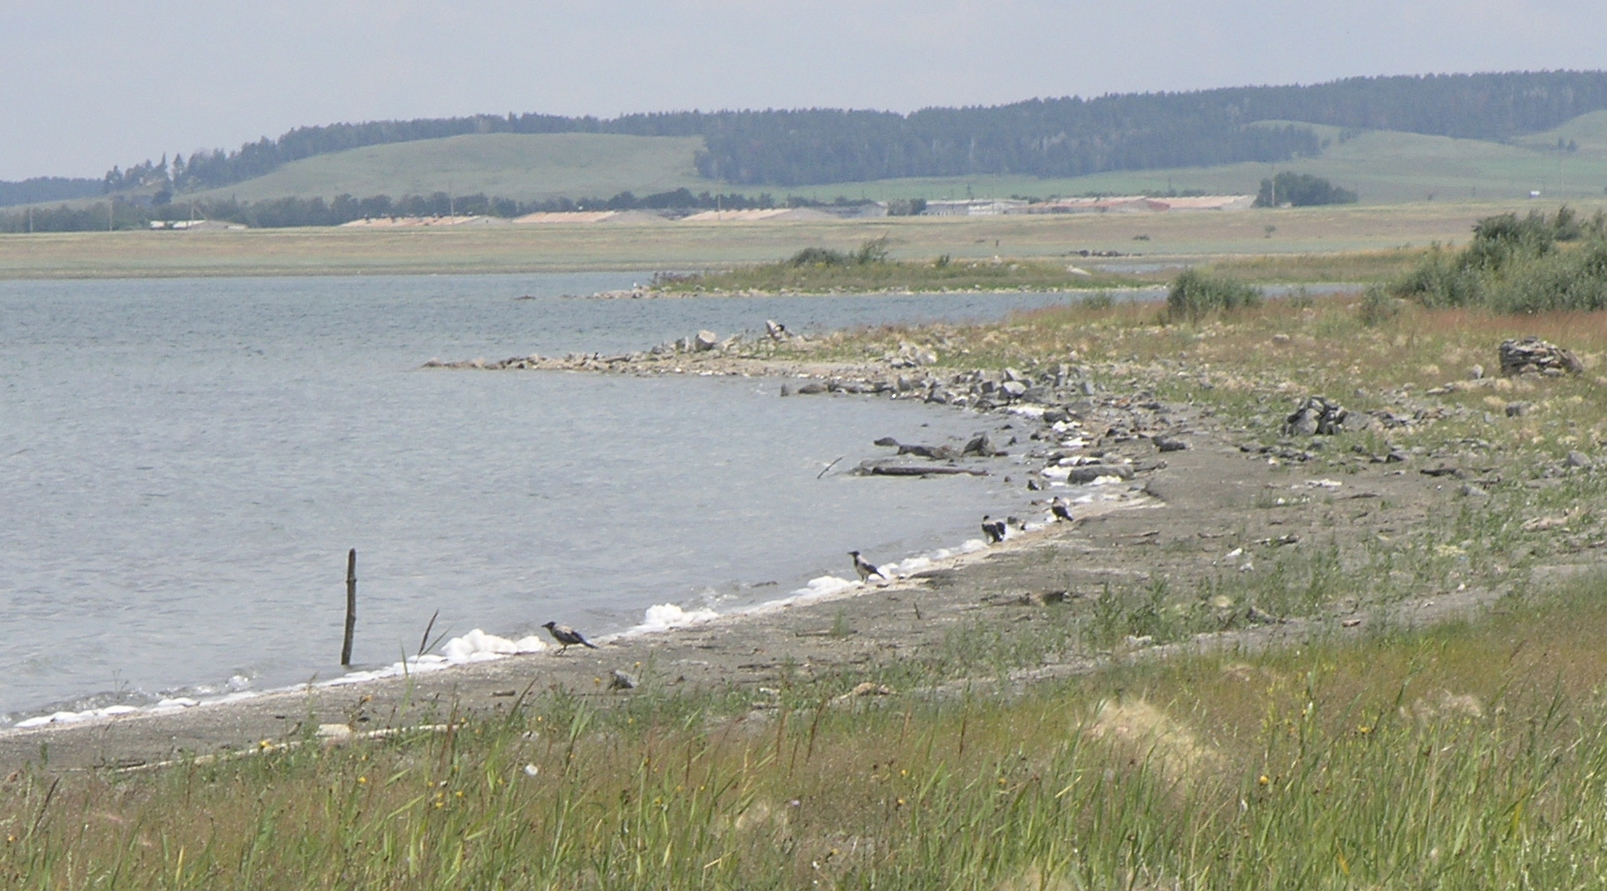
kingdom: Animalia
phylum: Chordata
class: Aves
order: Passeriformes
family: Corvidae
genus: Corvus
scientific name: Corvus cornix
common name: Hooded crow
